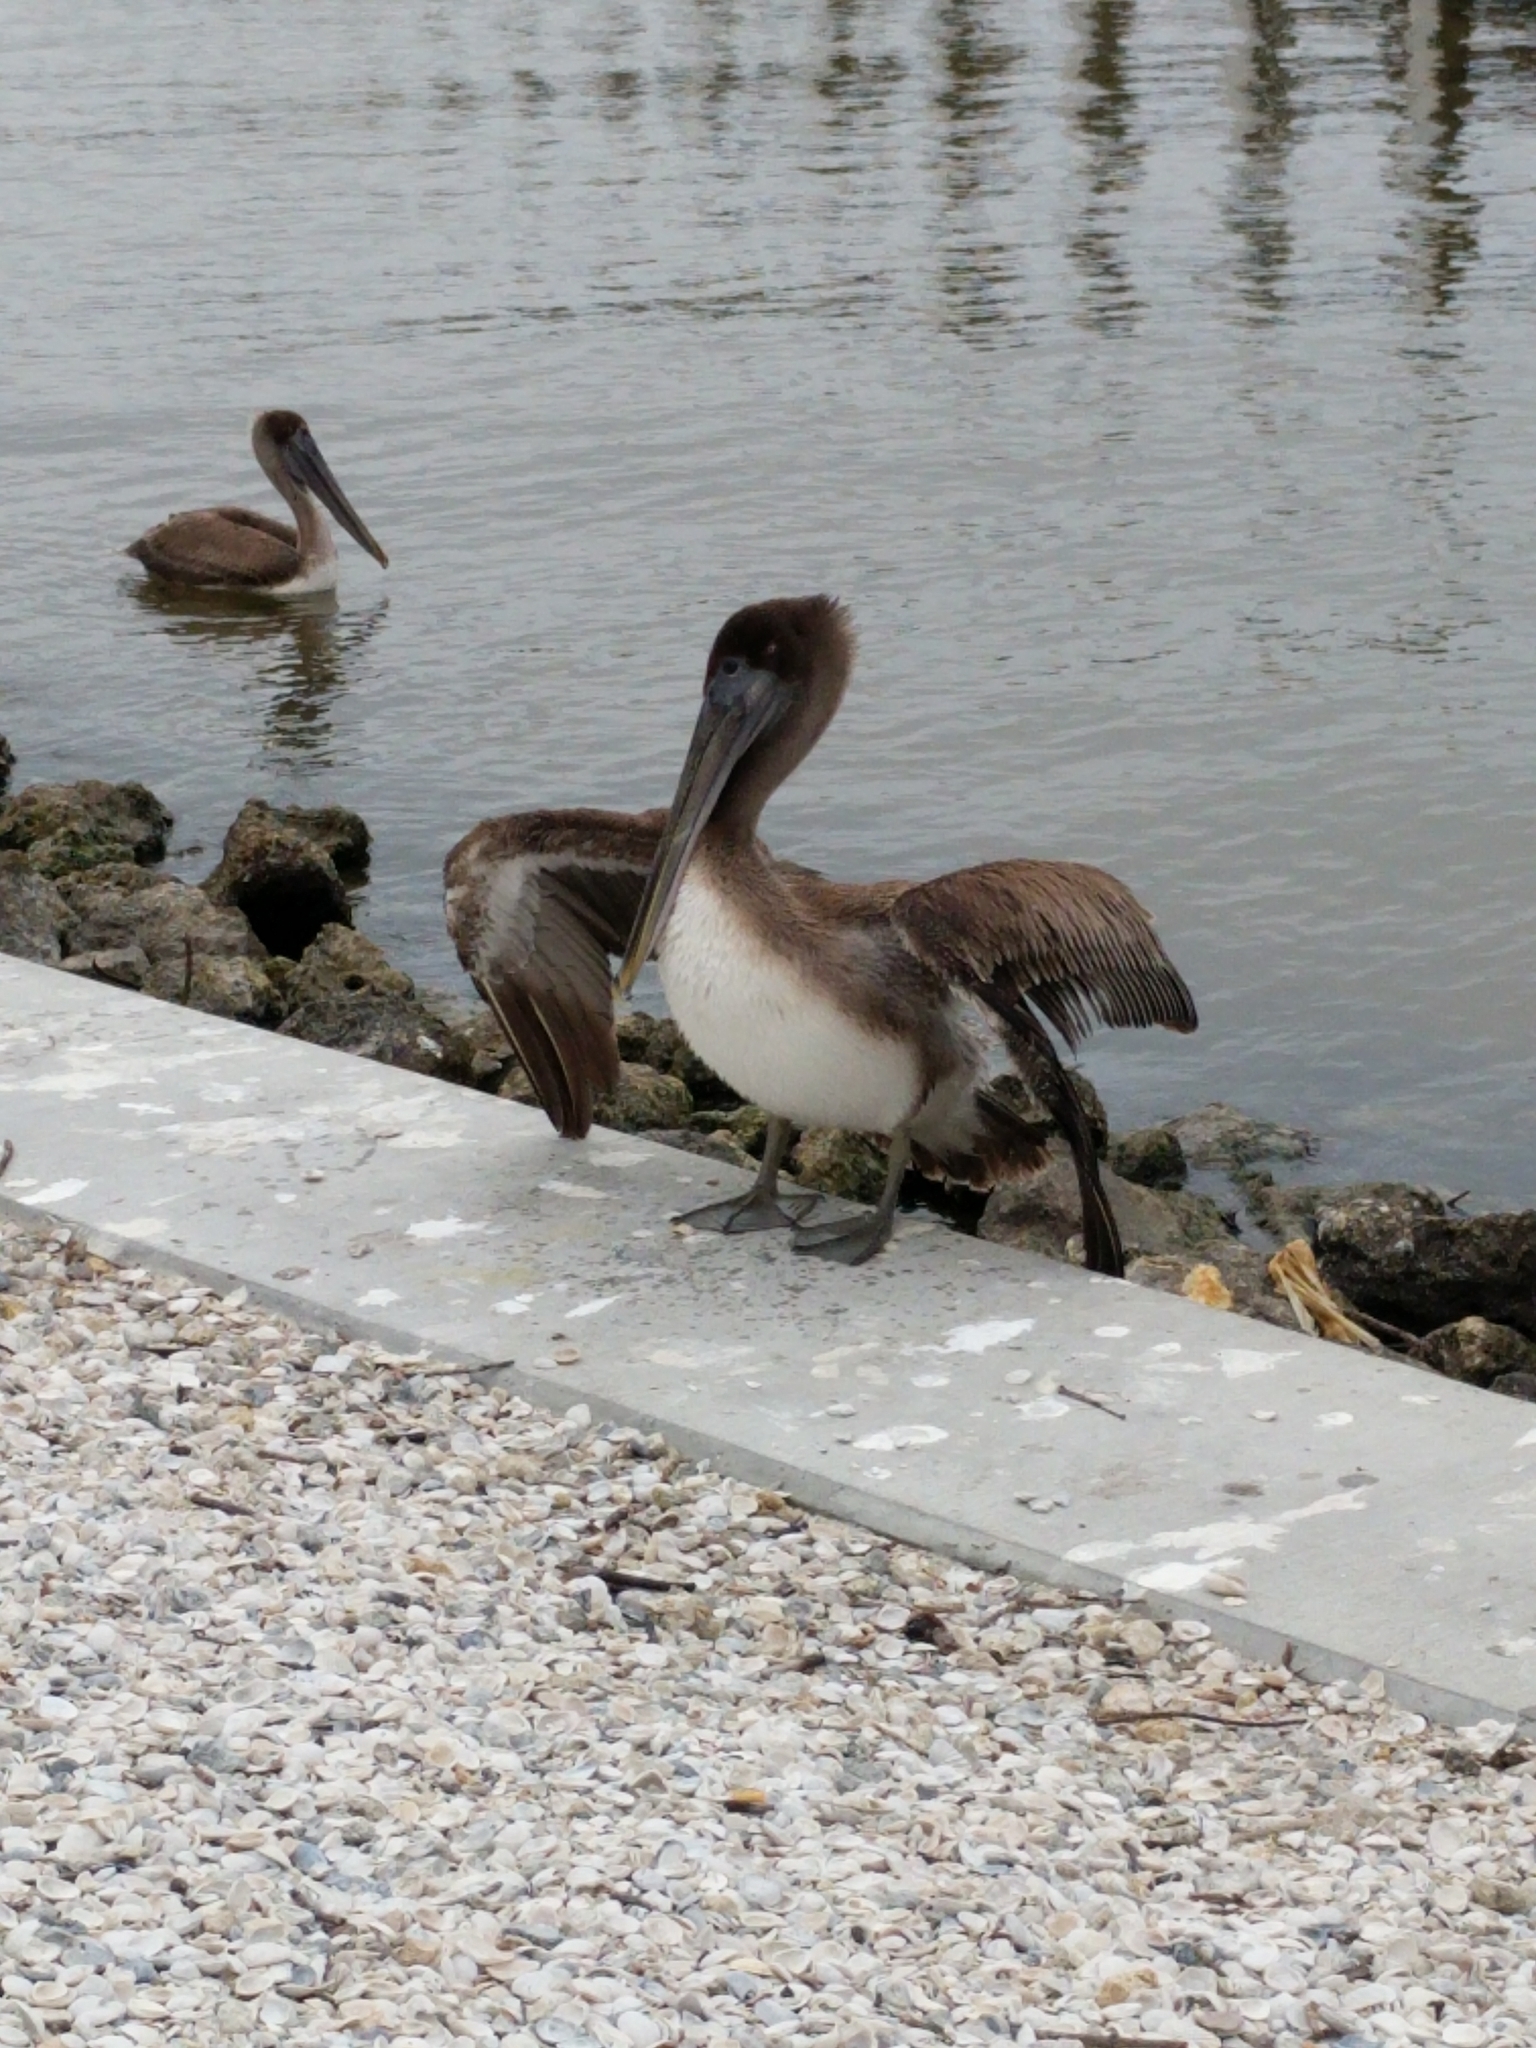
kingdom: Animalia
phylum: Chordata
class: Aves
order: Pelecaniformes
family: Pelecanidae
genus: Pelecanus
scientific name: Pelecanus occidentalis
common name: Brown pelican
